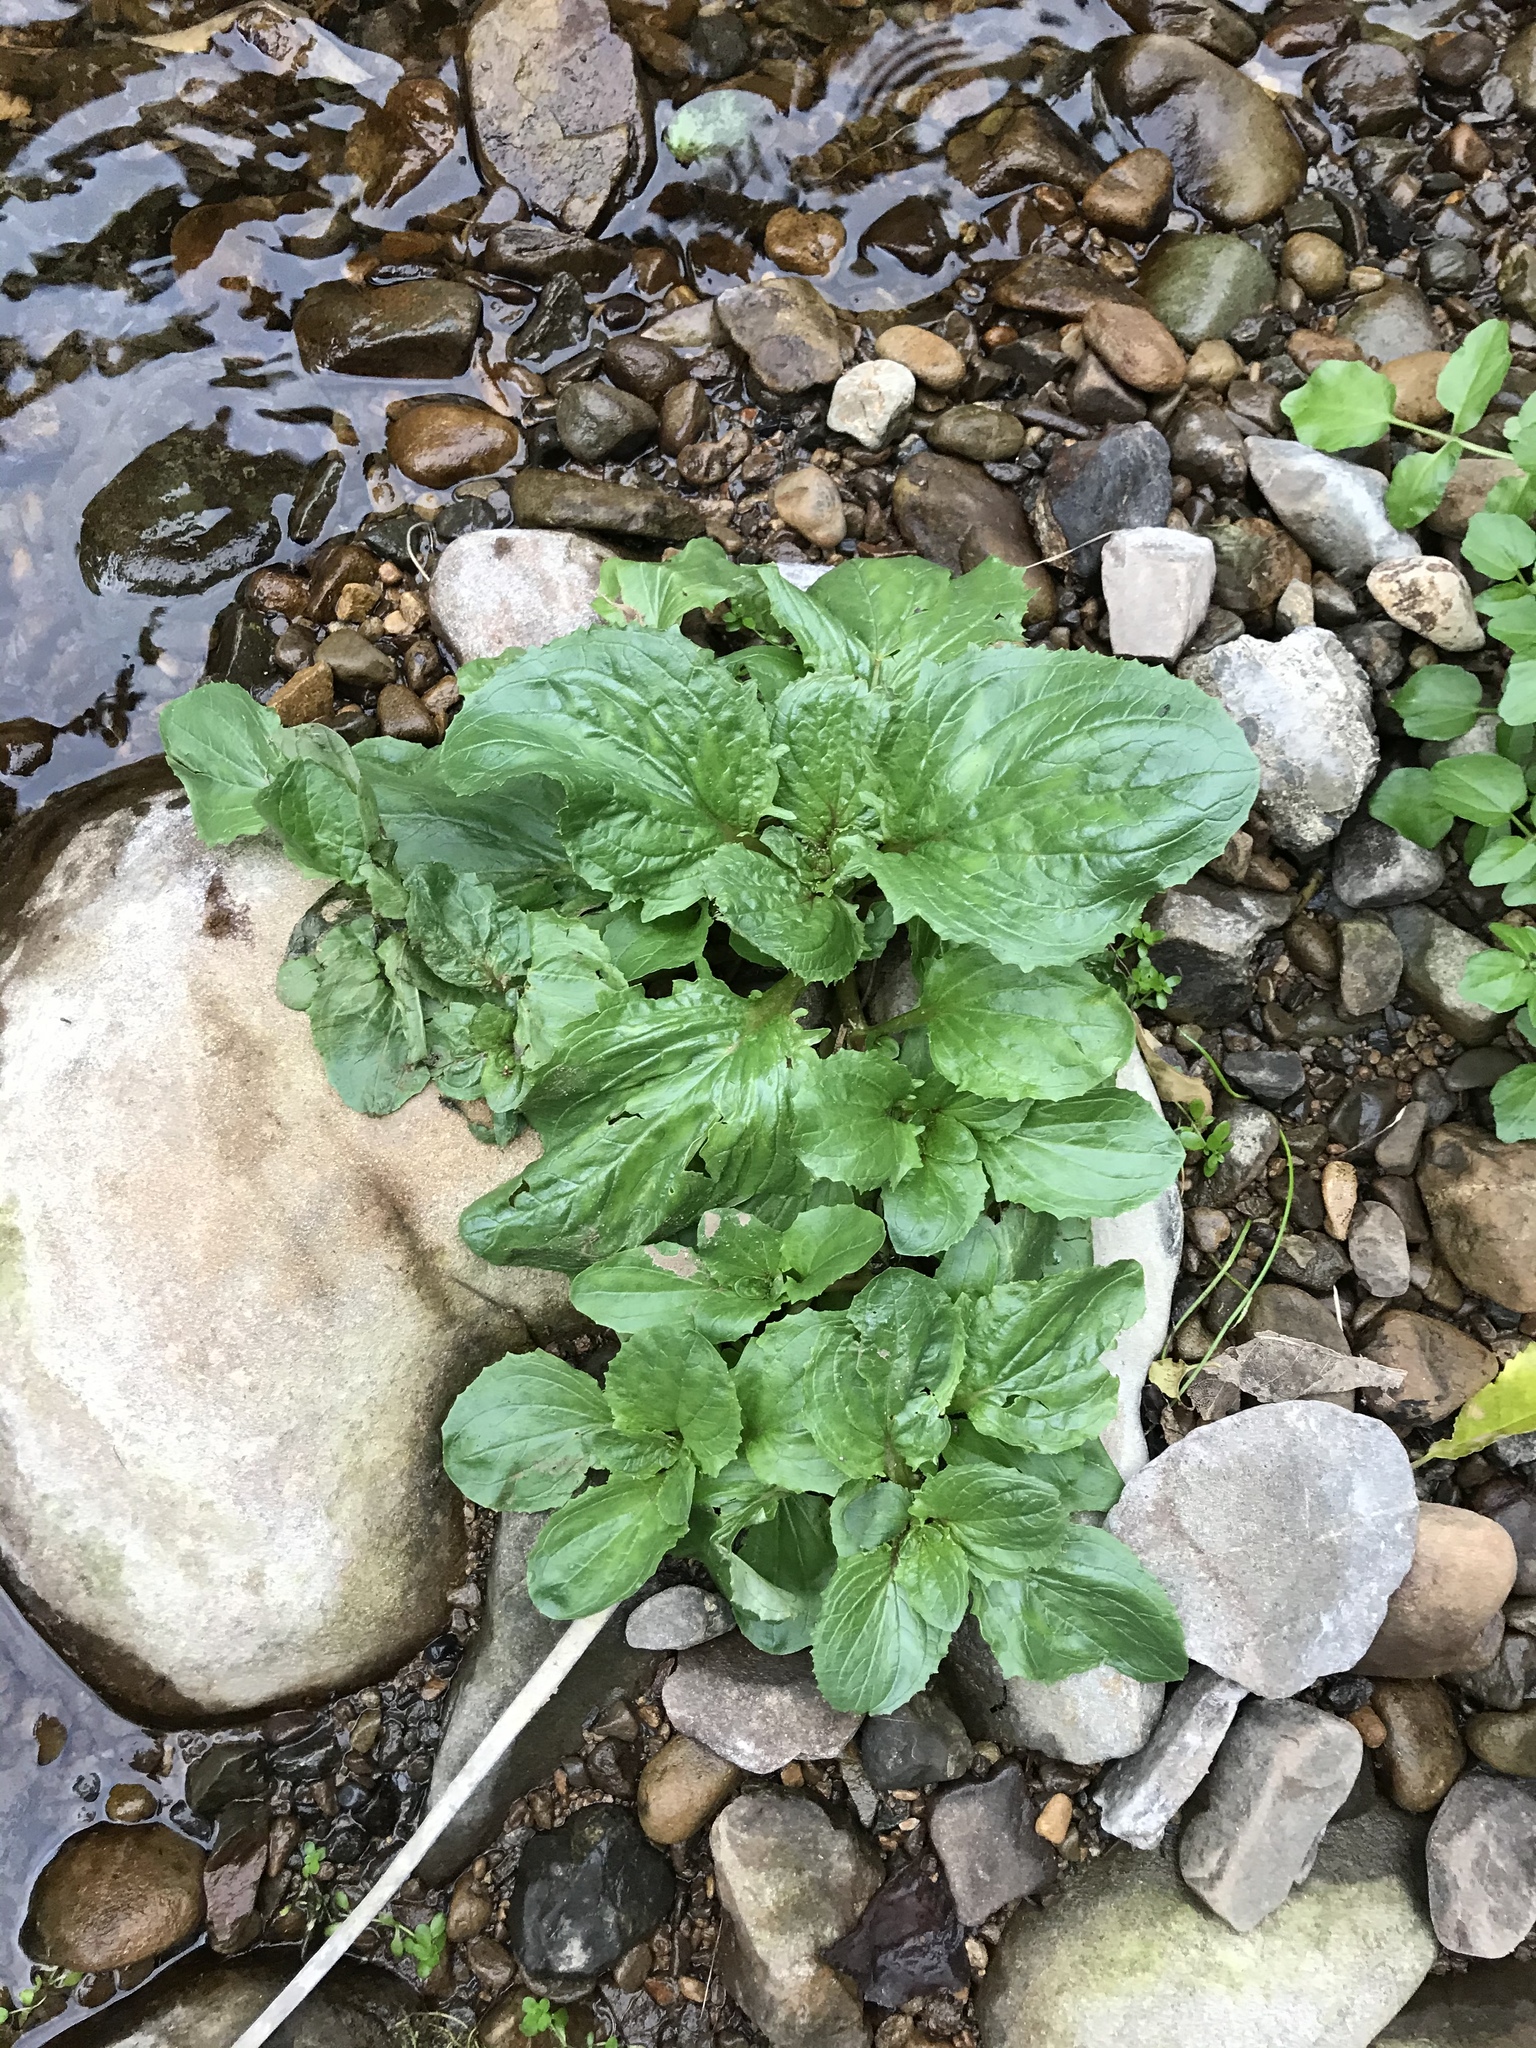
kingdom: Plantae
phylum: Tracheophyta
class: Magnoliopsida
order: Lamiales
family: Phrymaceae
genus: Erythranthe
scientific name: Erythranthe guttata
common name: Monkeyflower
